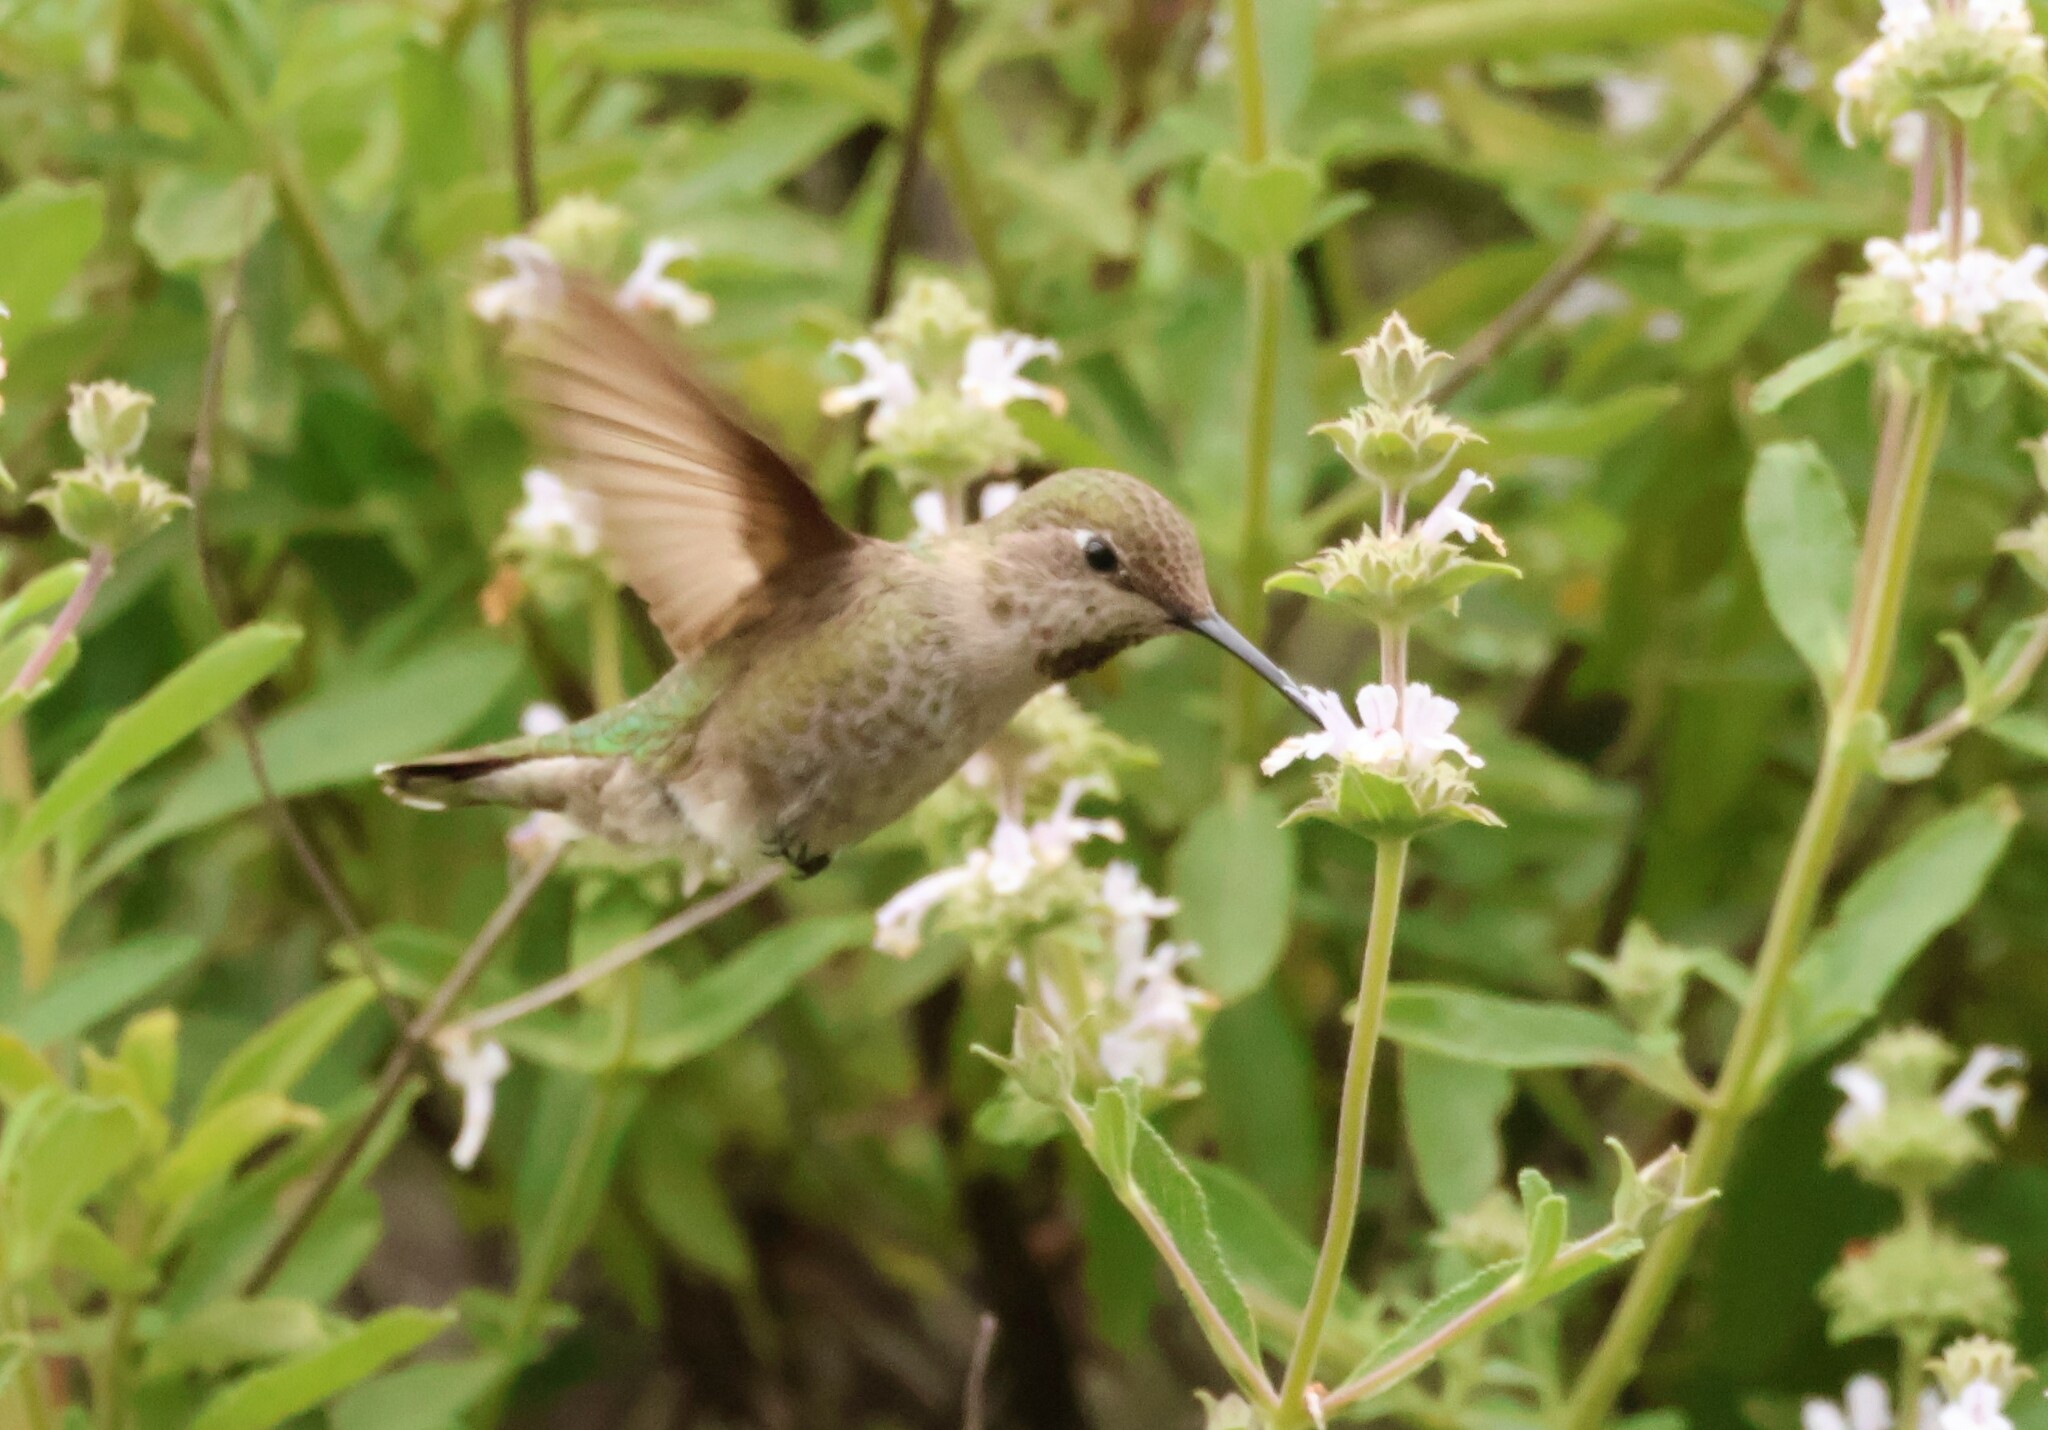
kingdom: Animalia
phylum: Chordata
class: Aves
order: Apodiformes
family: Trochilidae
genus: Calypte
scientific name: Calypte anna
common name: Anna's hummingbird
